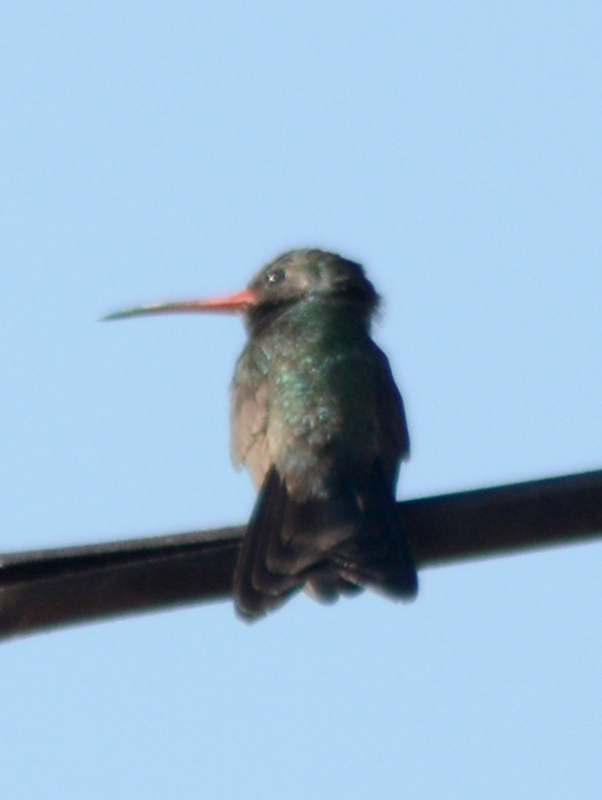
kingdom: Animalia
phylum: Chordata
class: Aves
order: Apodiformes
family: Trochilidae
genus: Cynanthus
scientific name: Cynanthus latirostris
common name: Broad-billed hummingbird
